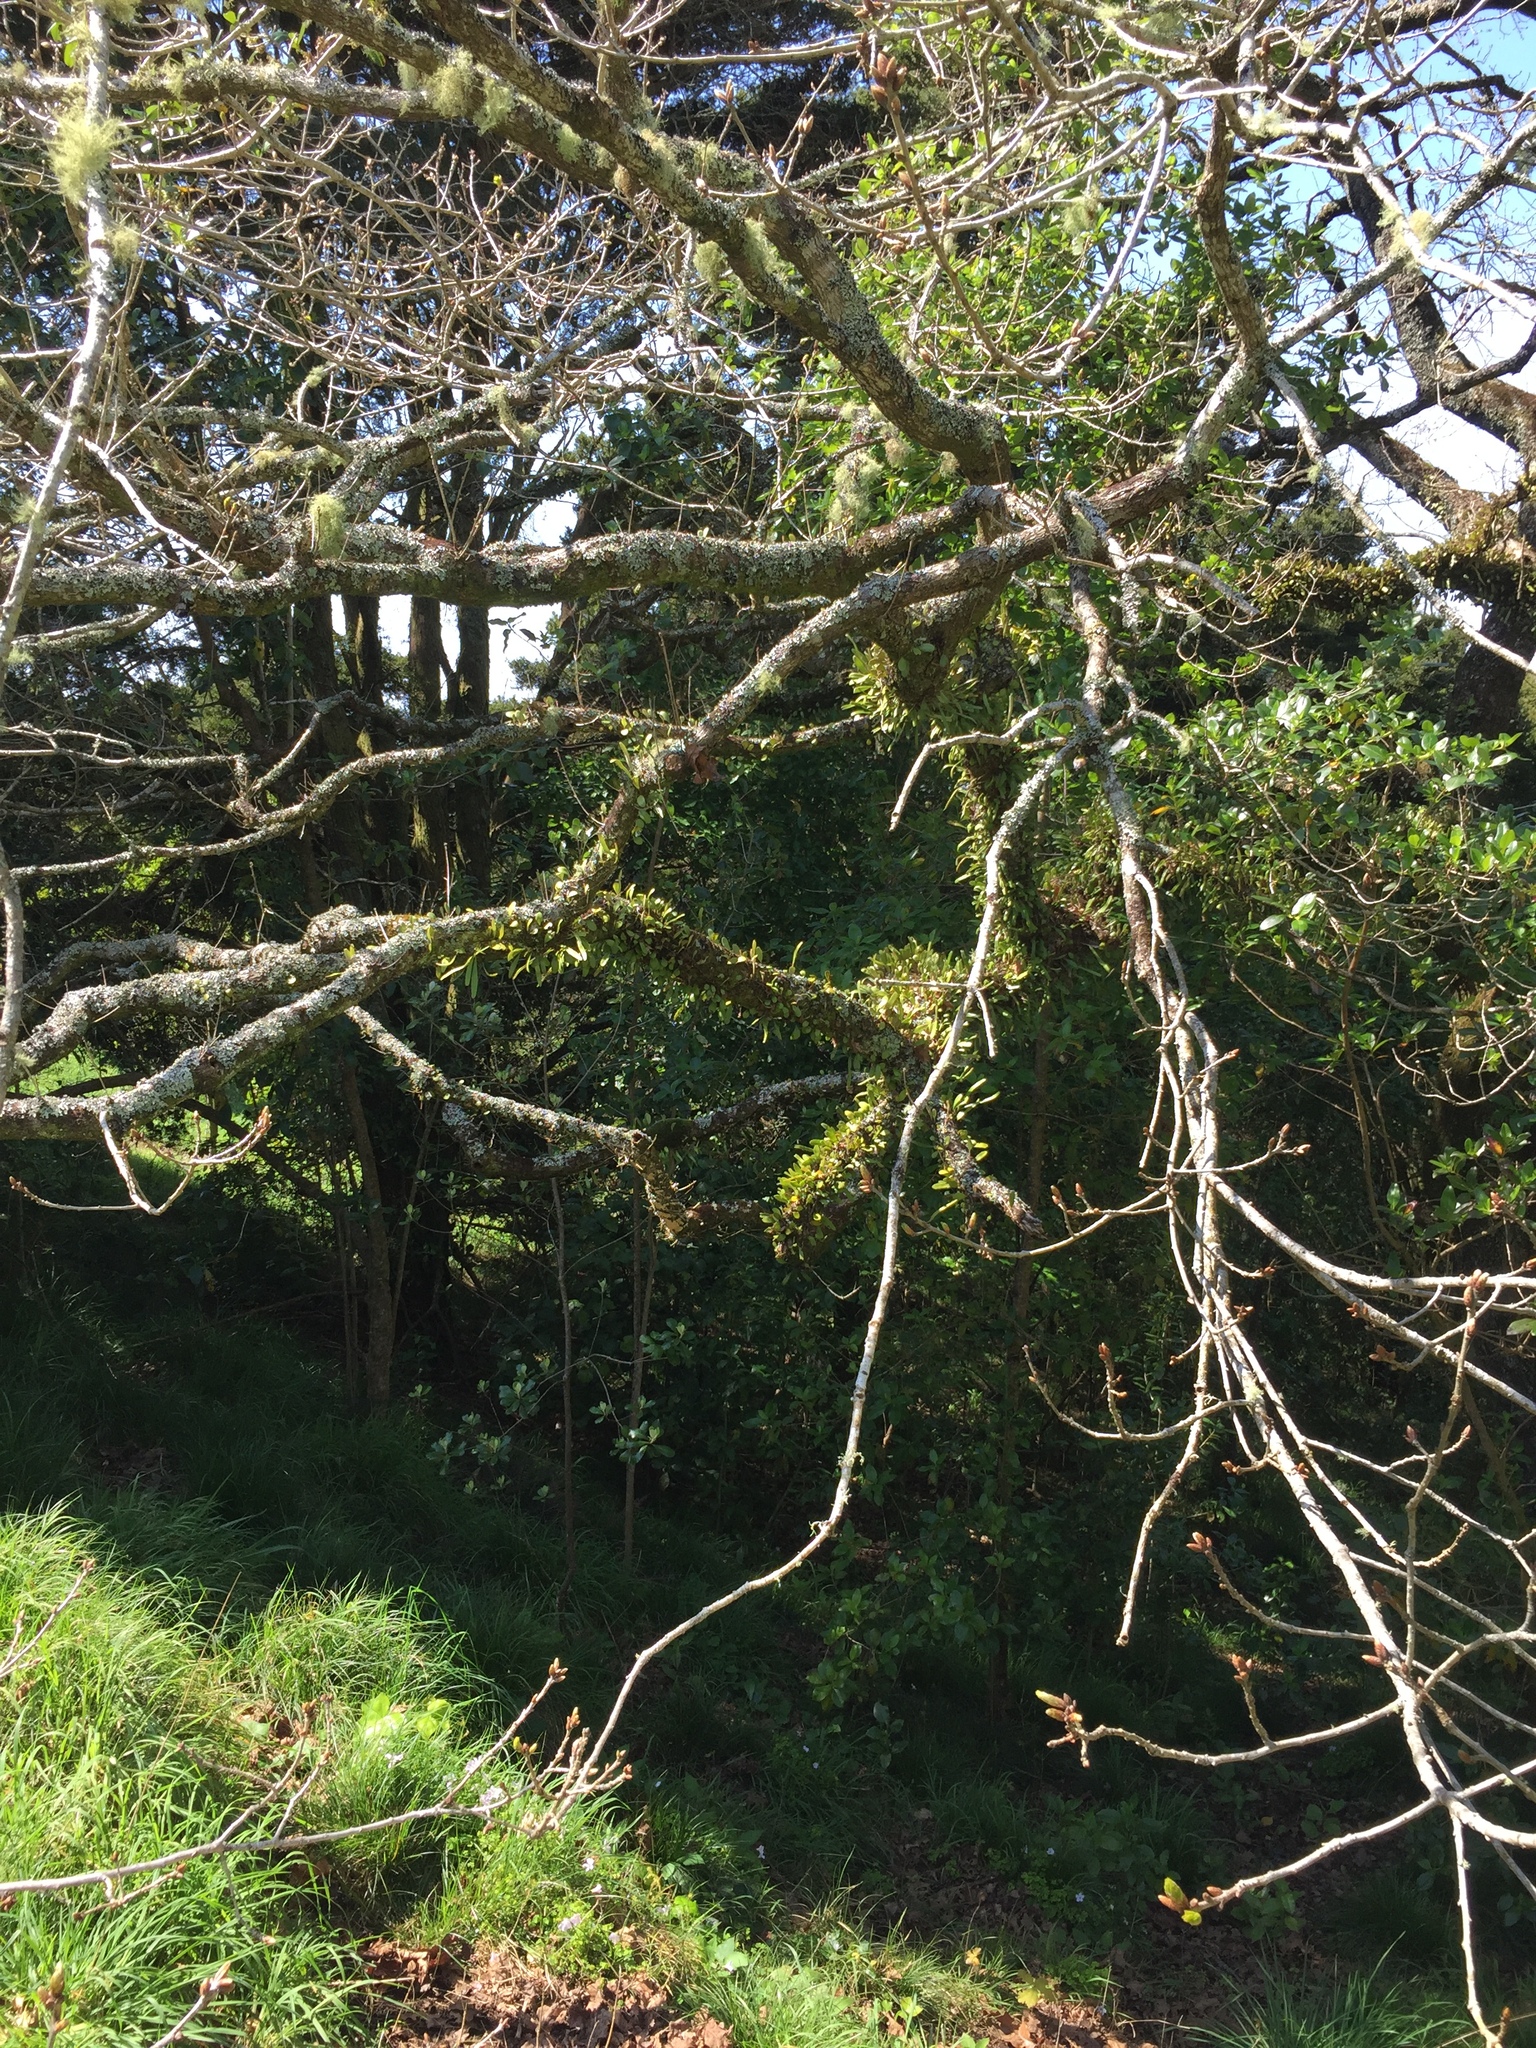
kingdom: Animalia
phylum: Arthropoda
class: Insecta
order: Lepidoptera
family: Stathmopodidae
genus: Calicotis
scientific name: Calicotis crucifera
